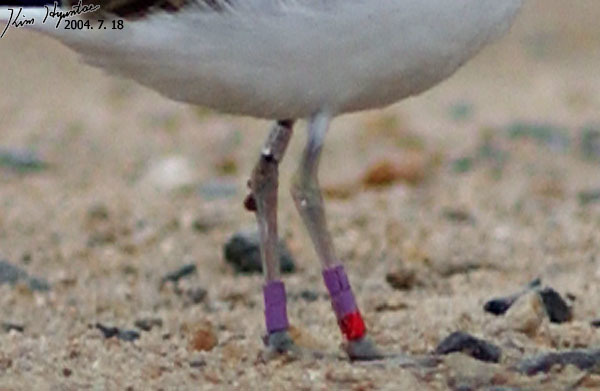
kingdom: Animalia
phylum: Chordata
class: Aves
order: Charadriiformes
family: Charadriidae
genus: Charadrius
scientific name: Charadrius alexandrinus
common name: Kentish plover
